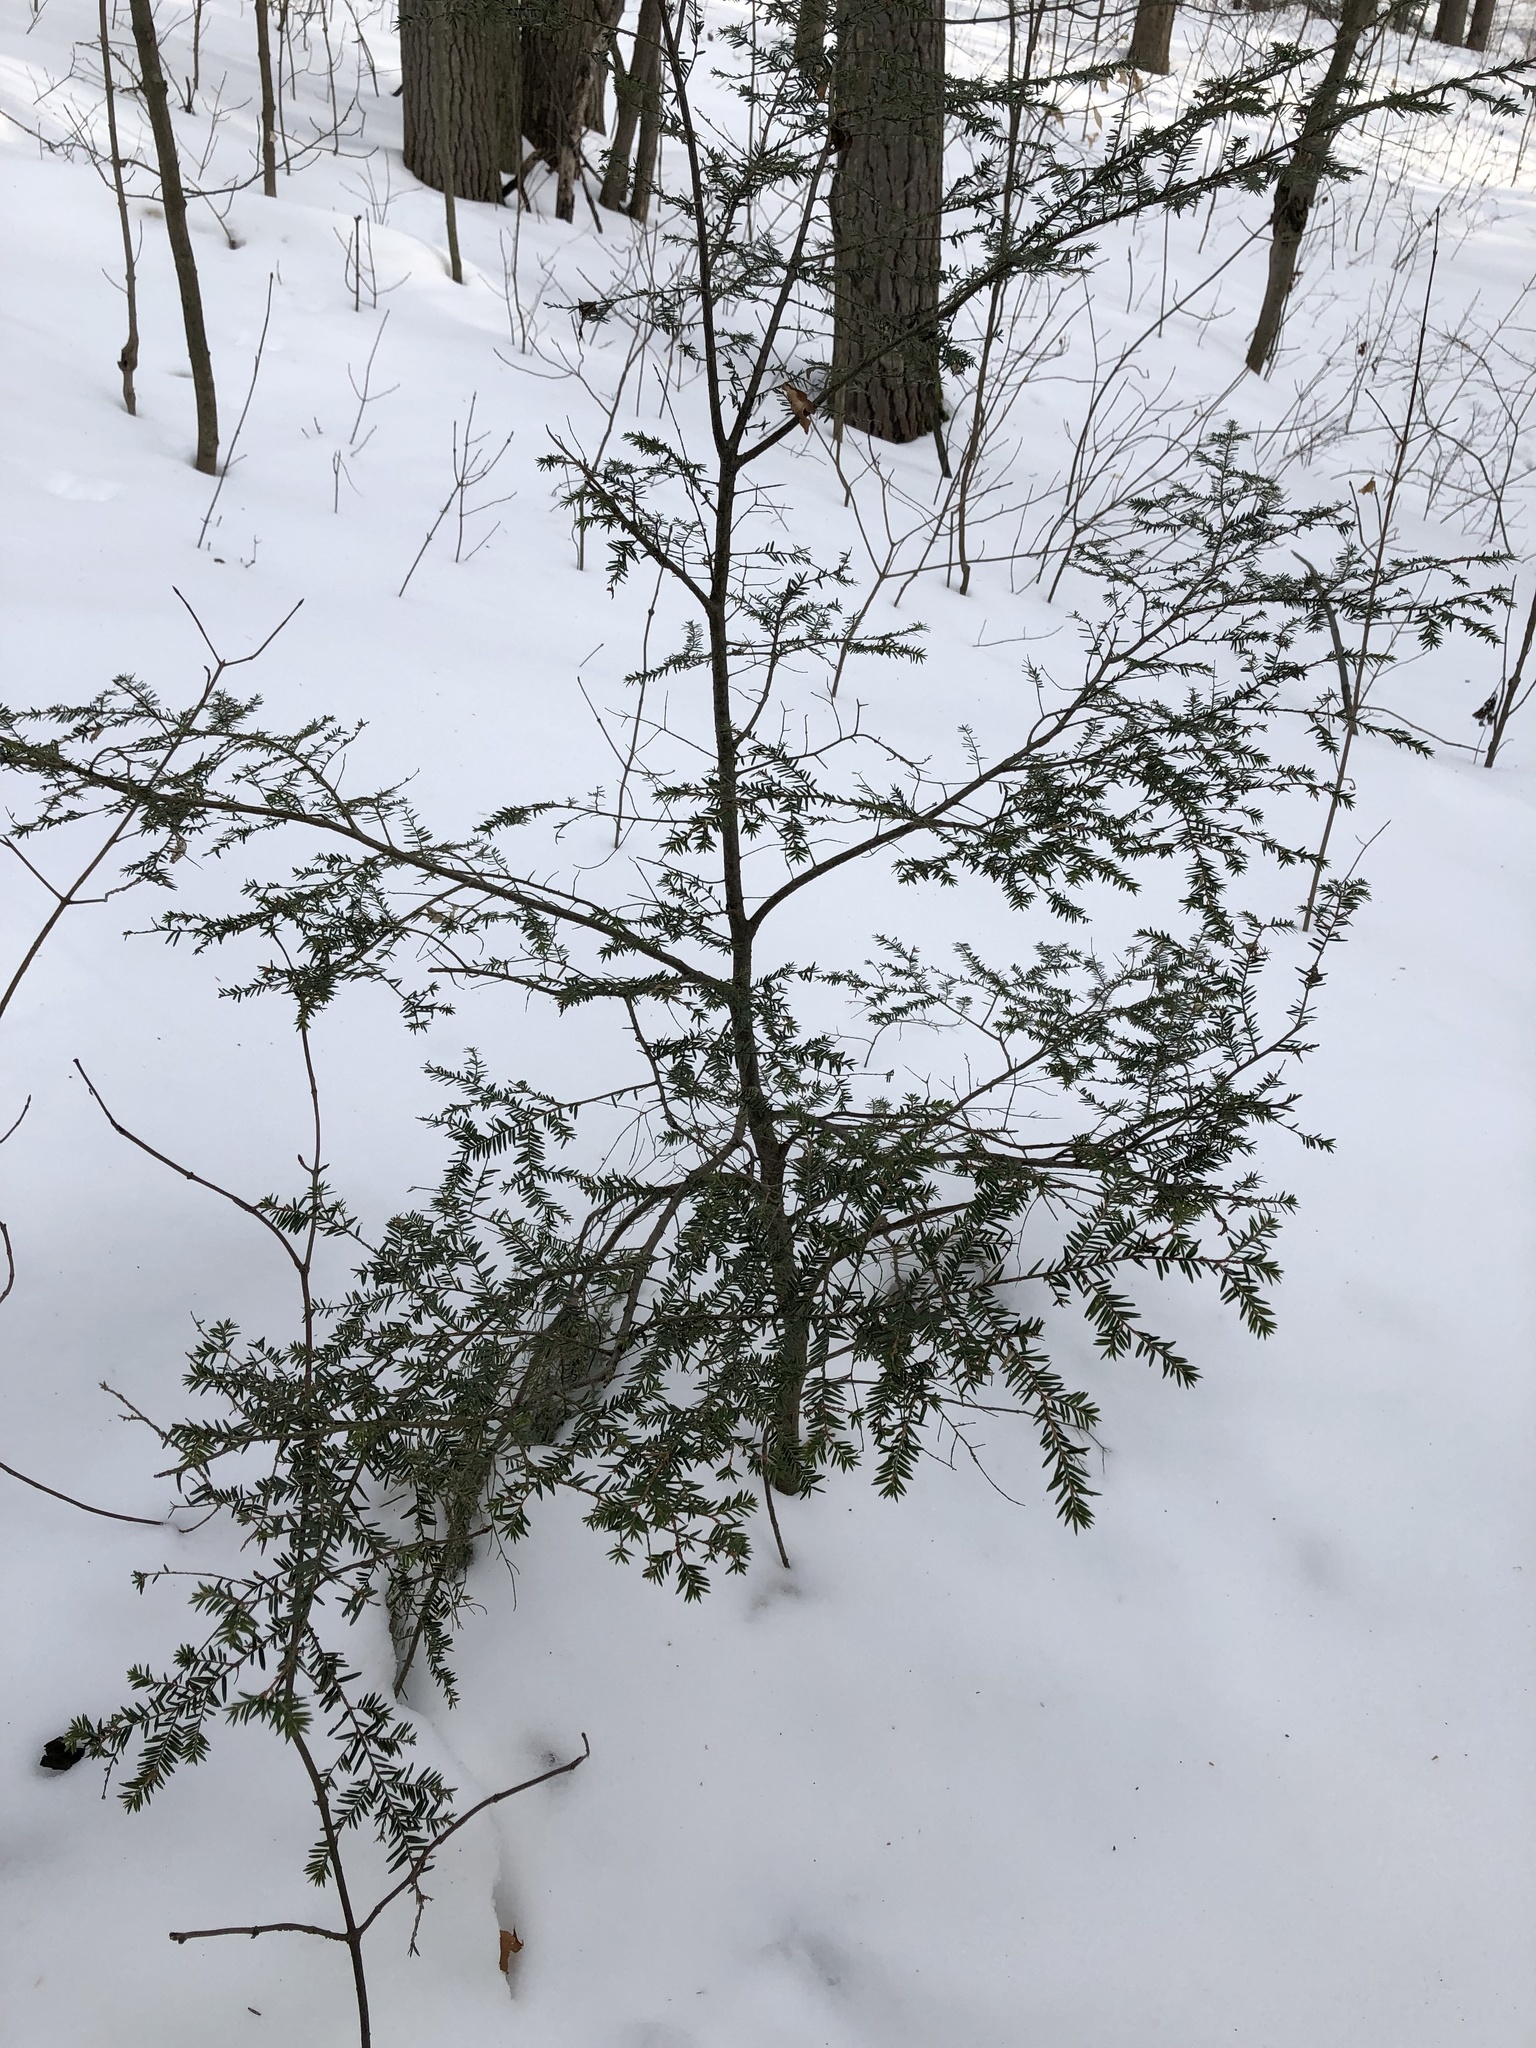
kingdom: Plantae
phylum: Tracheophyta
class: Pinopsida
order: Pinales
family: Pinaceae
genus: Tsuga
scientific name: Tsuga canadensis
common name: Eastern hemlock
